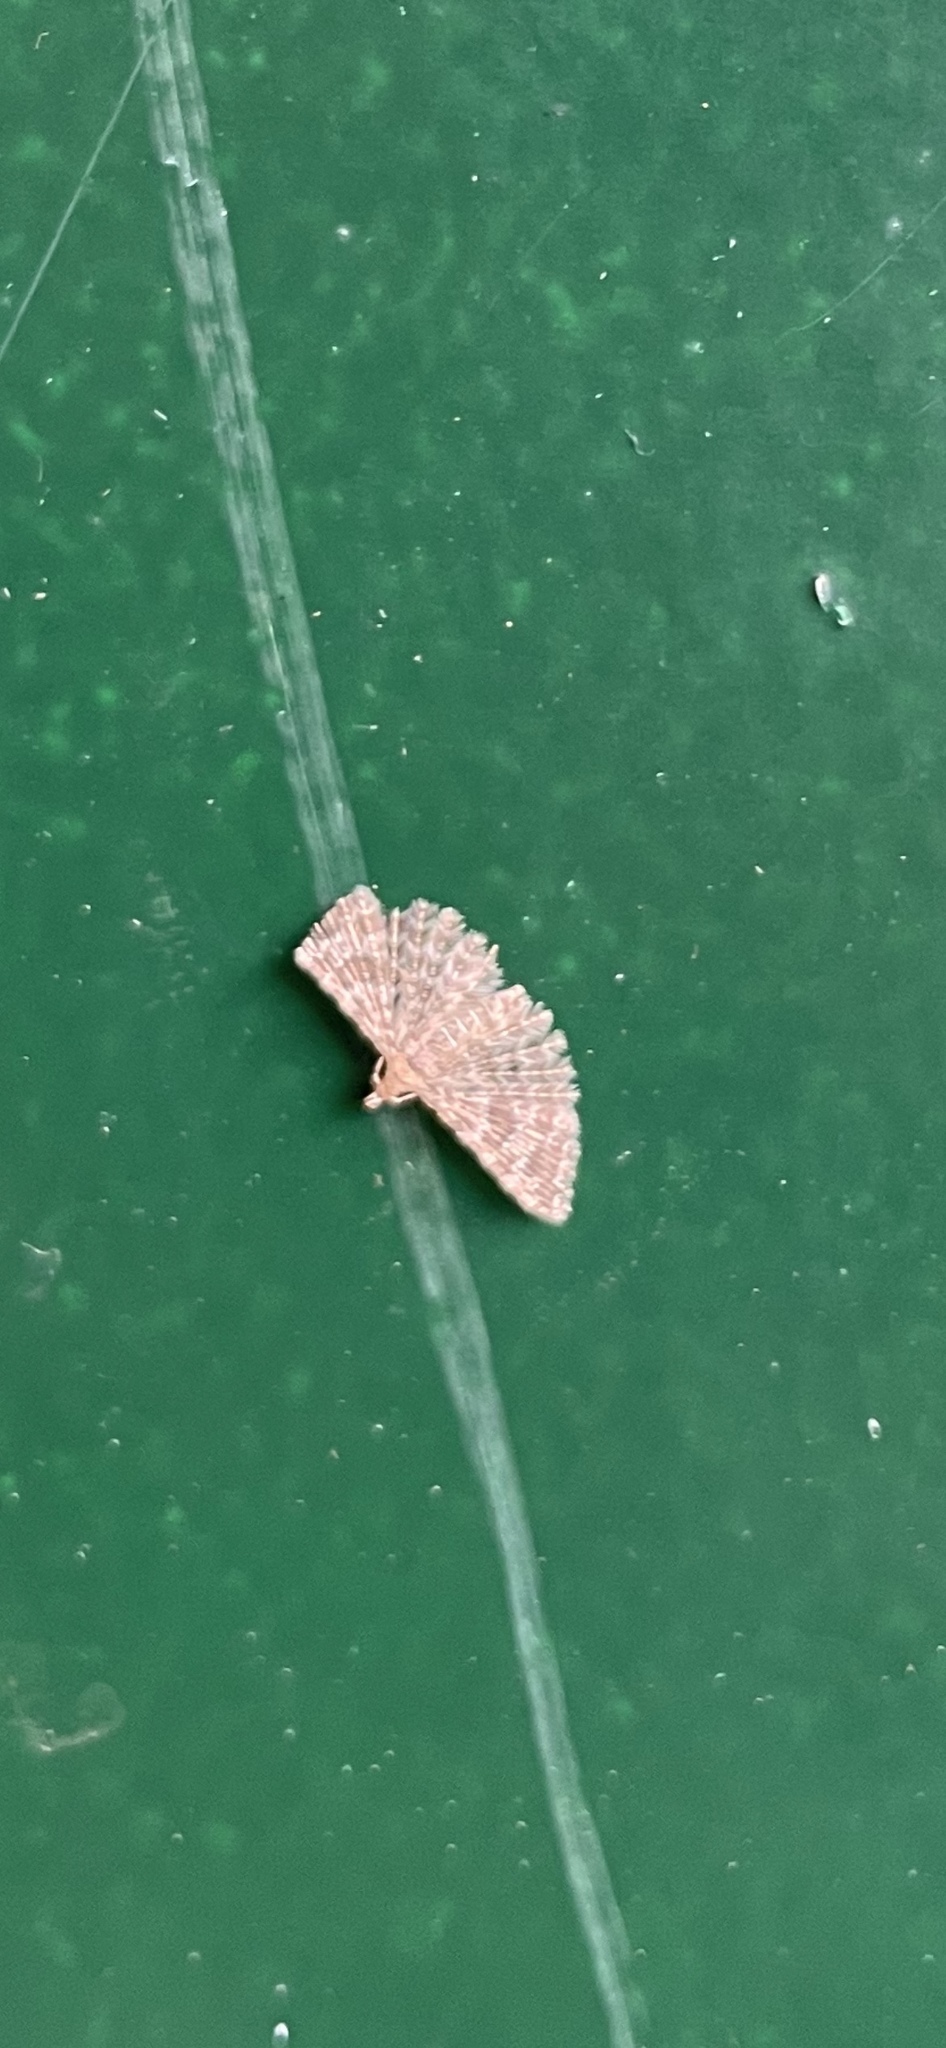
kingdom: Animalia
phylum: Arthropoda
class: Insecta
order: Lepidoptera
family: Alucitidae
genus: Alucita
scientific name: Alucita
